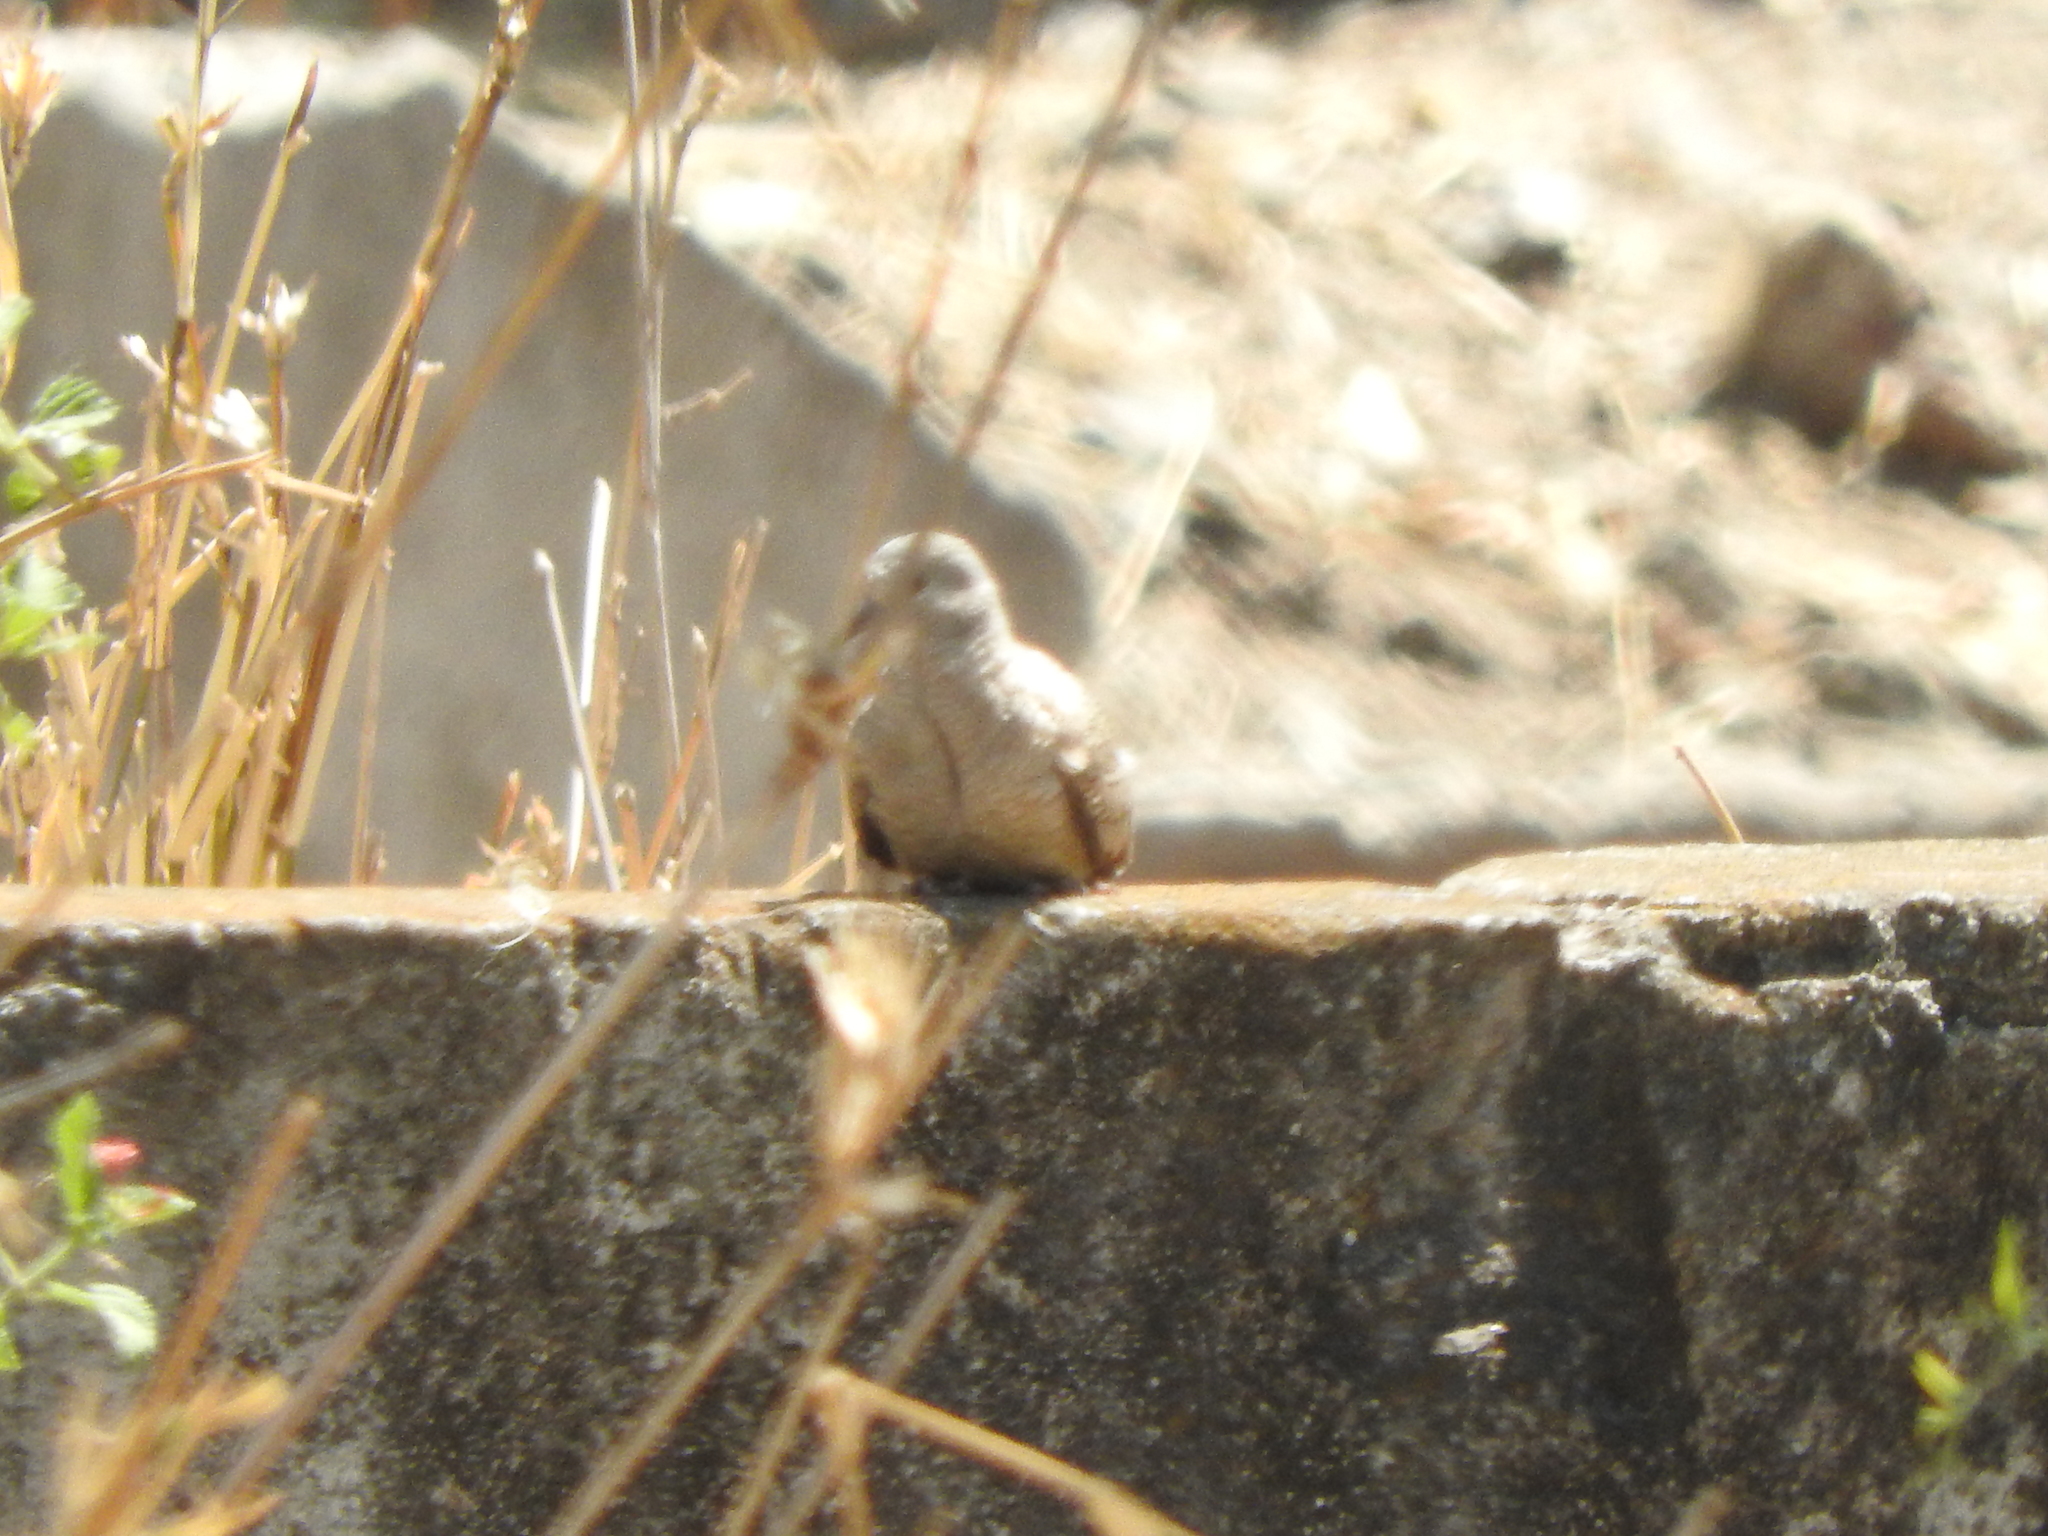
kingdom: Animalia
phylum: Chordata
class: Aves
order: Columbiformes
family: Columbidae
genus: Columbina
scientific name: Columbina inca
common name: Inca dove
